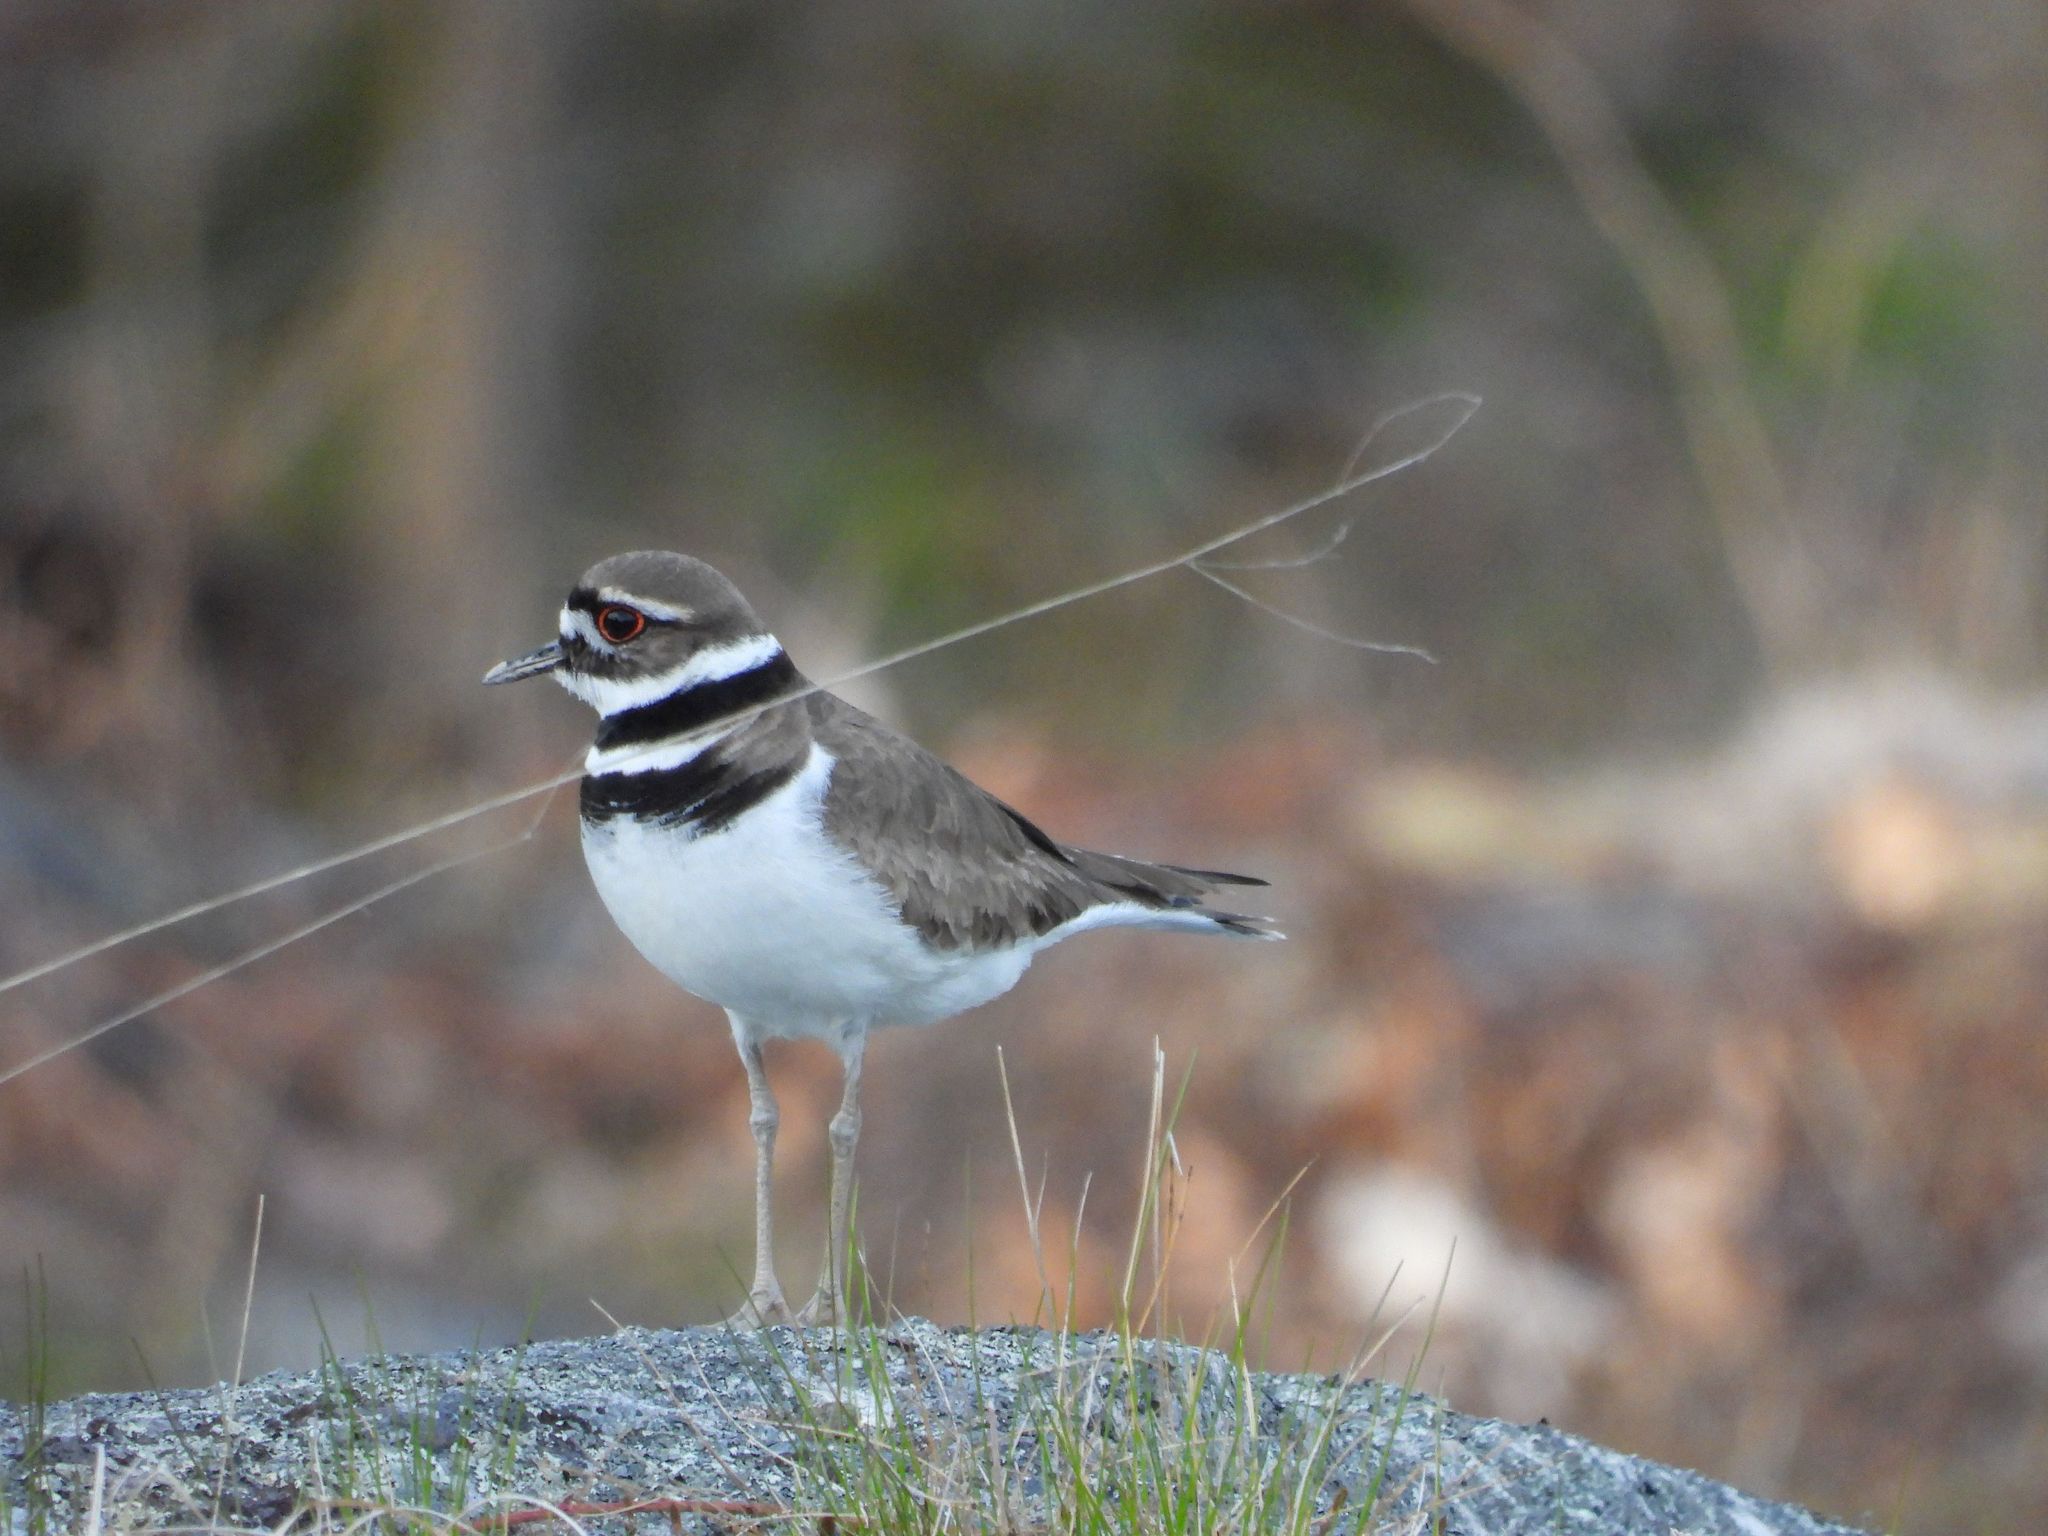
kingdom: Animalia
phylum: Chordata
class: Aves
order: Charadriiformes
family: Charadriidae
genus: Charadrius
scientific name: Charadrius vociferus
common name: Killdeer
